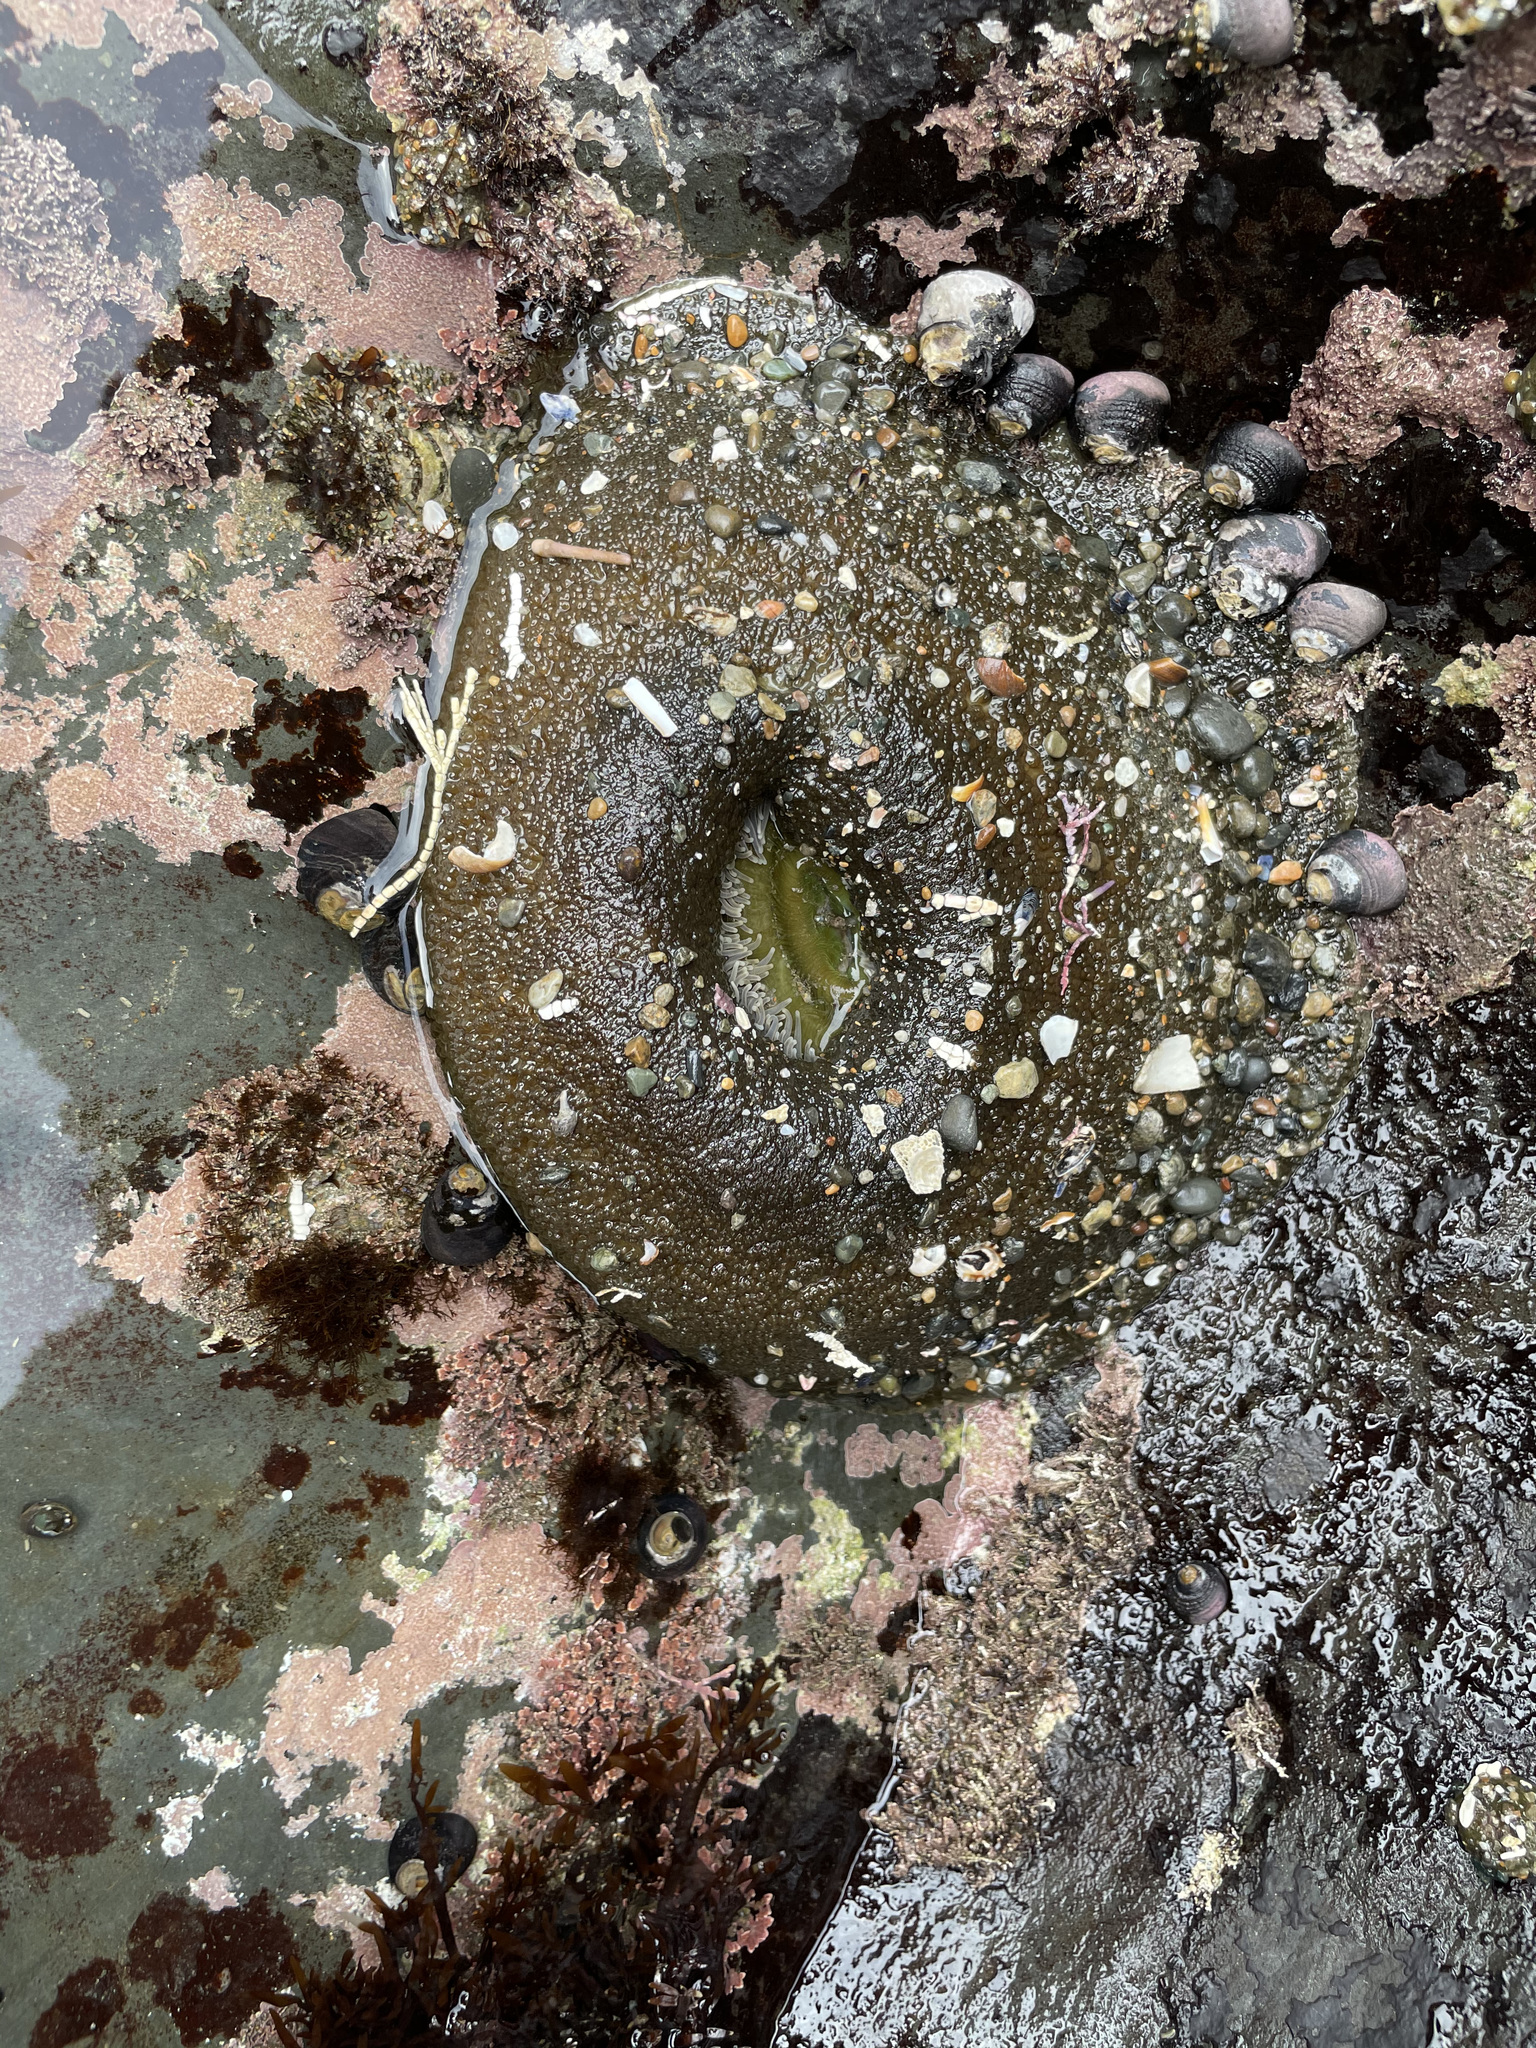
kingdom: Animalia
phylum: Cnidaria
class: Anthozoa
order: Actiniaria
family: Actiniidae
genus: Anthopleura
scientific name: Anthopleura xanthogrammica
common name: Giant green anemone
